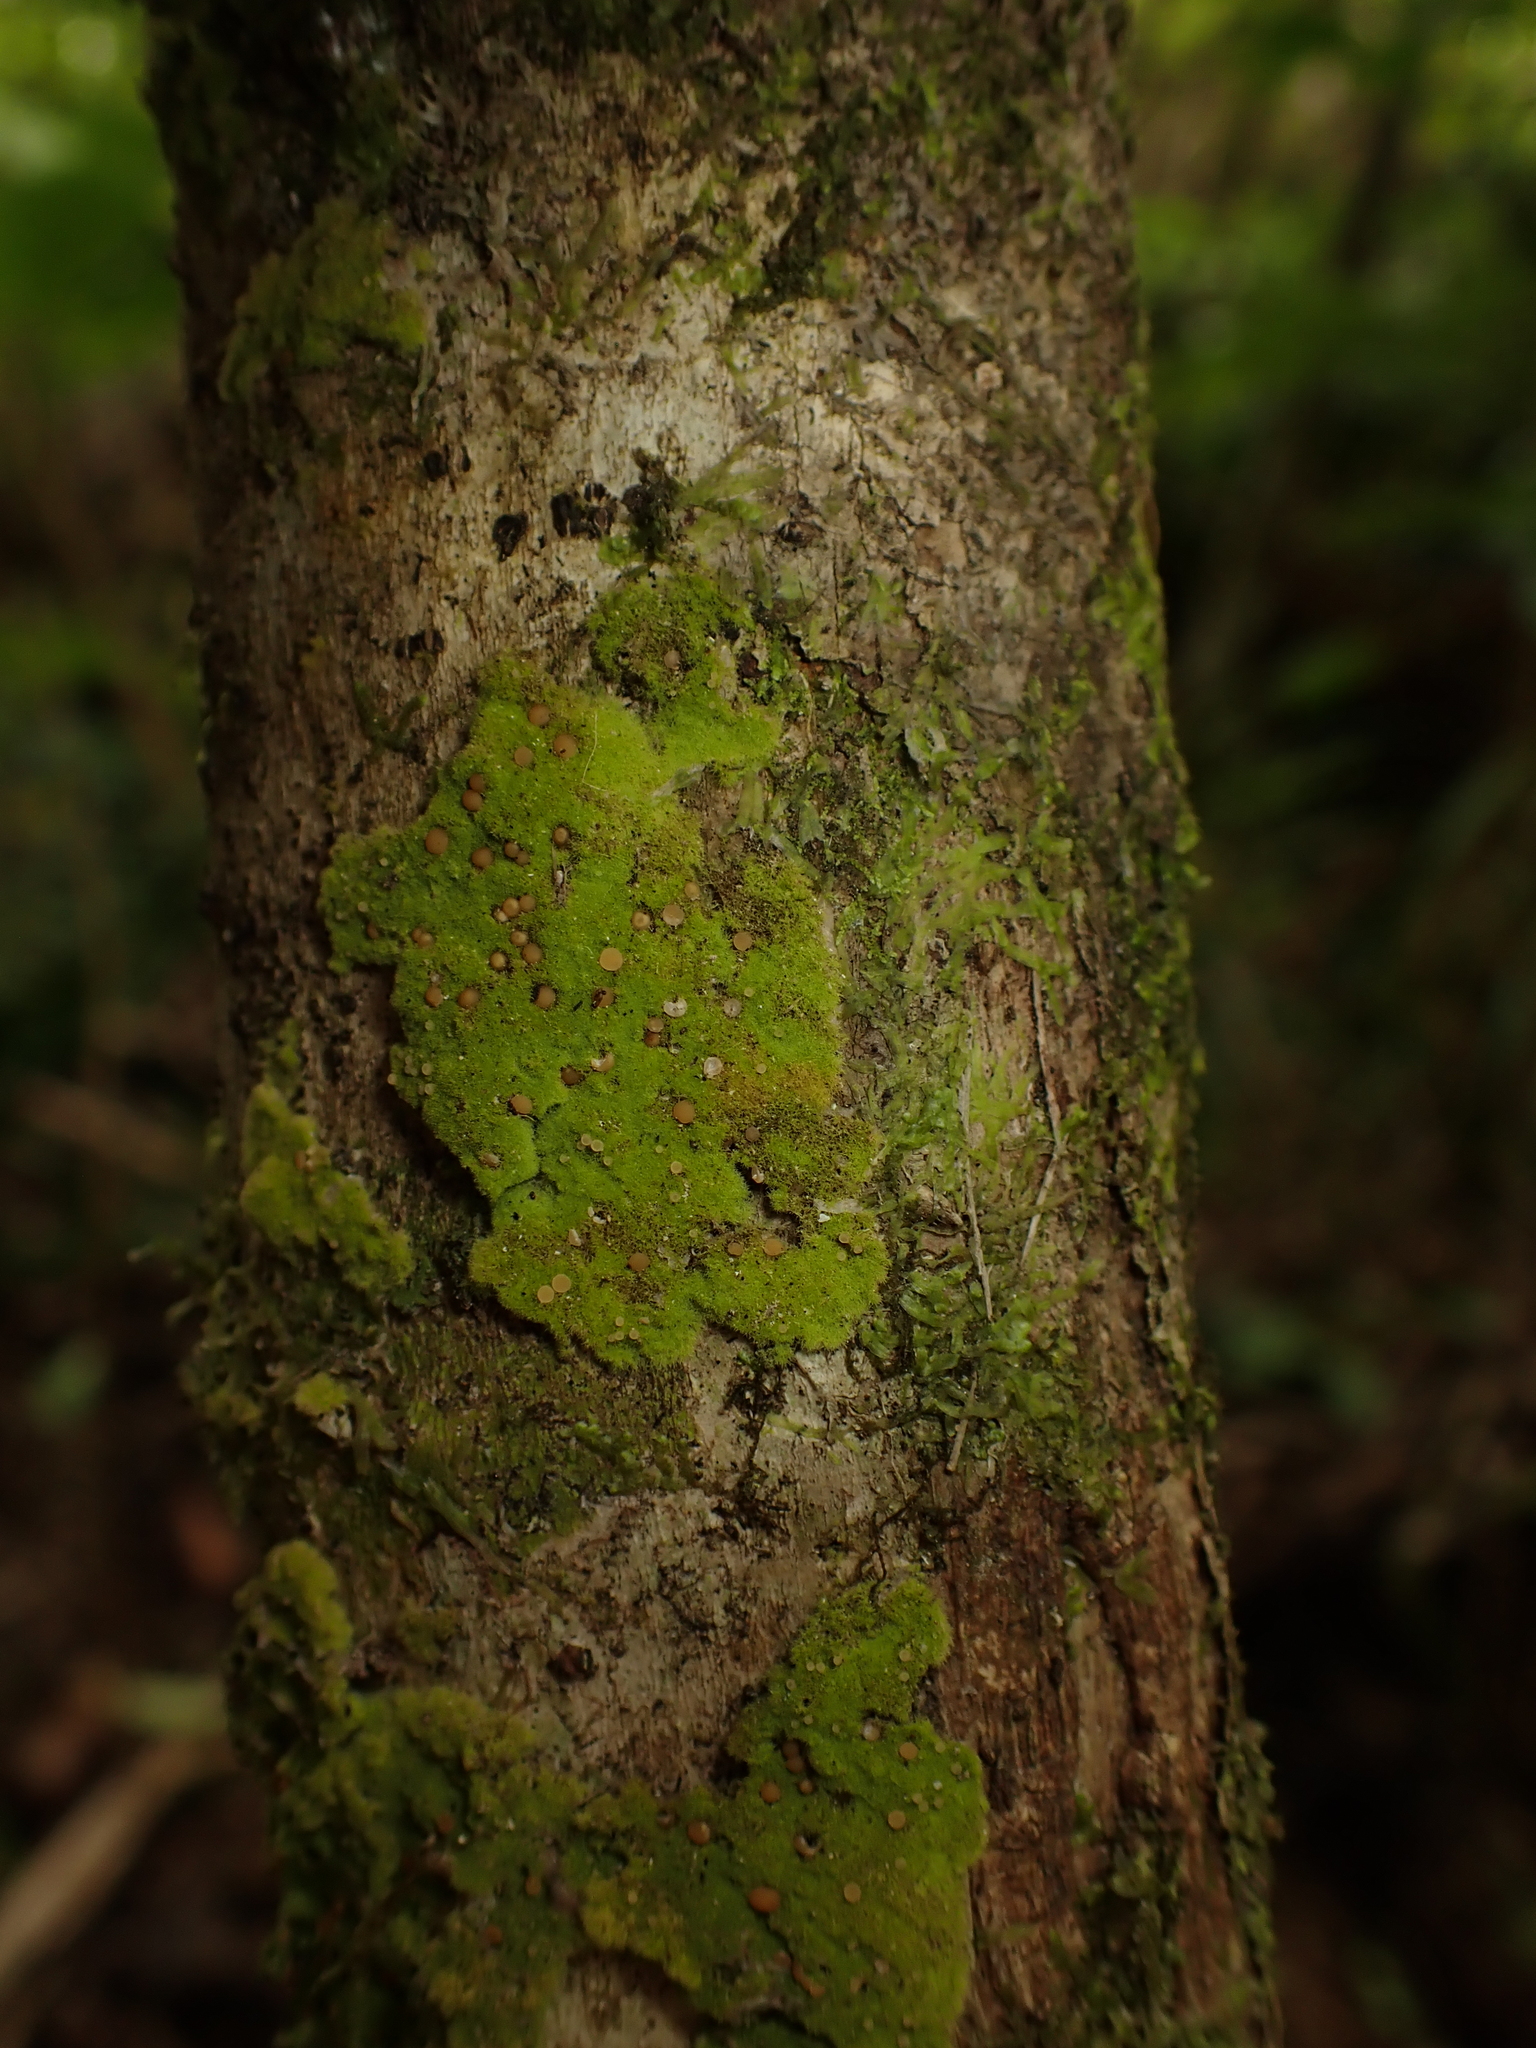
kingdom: Fungi
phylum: Ascomycota
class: Lecanoromycetes
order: Ostropales
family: Coenogoniaceae
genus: Coenogonium
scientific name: Coenogonium implexum
